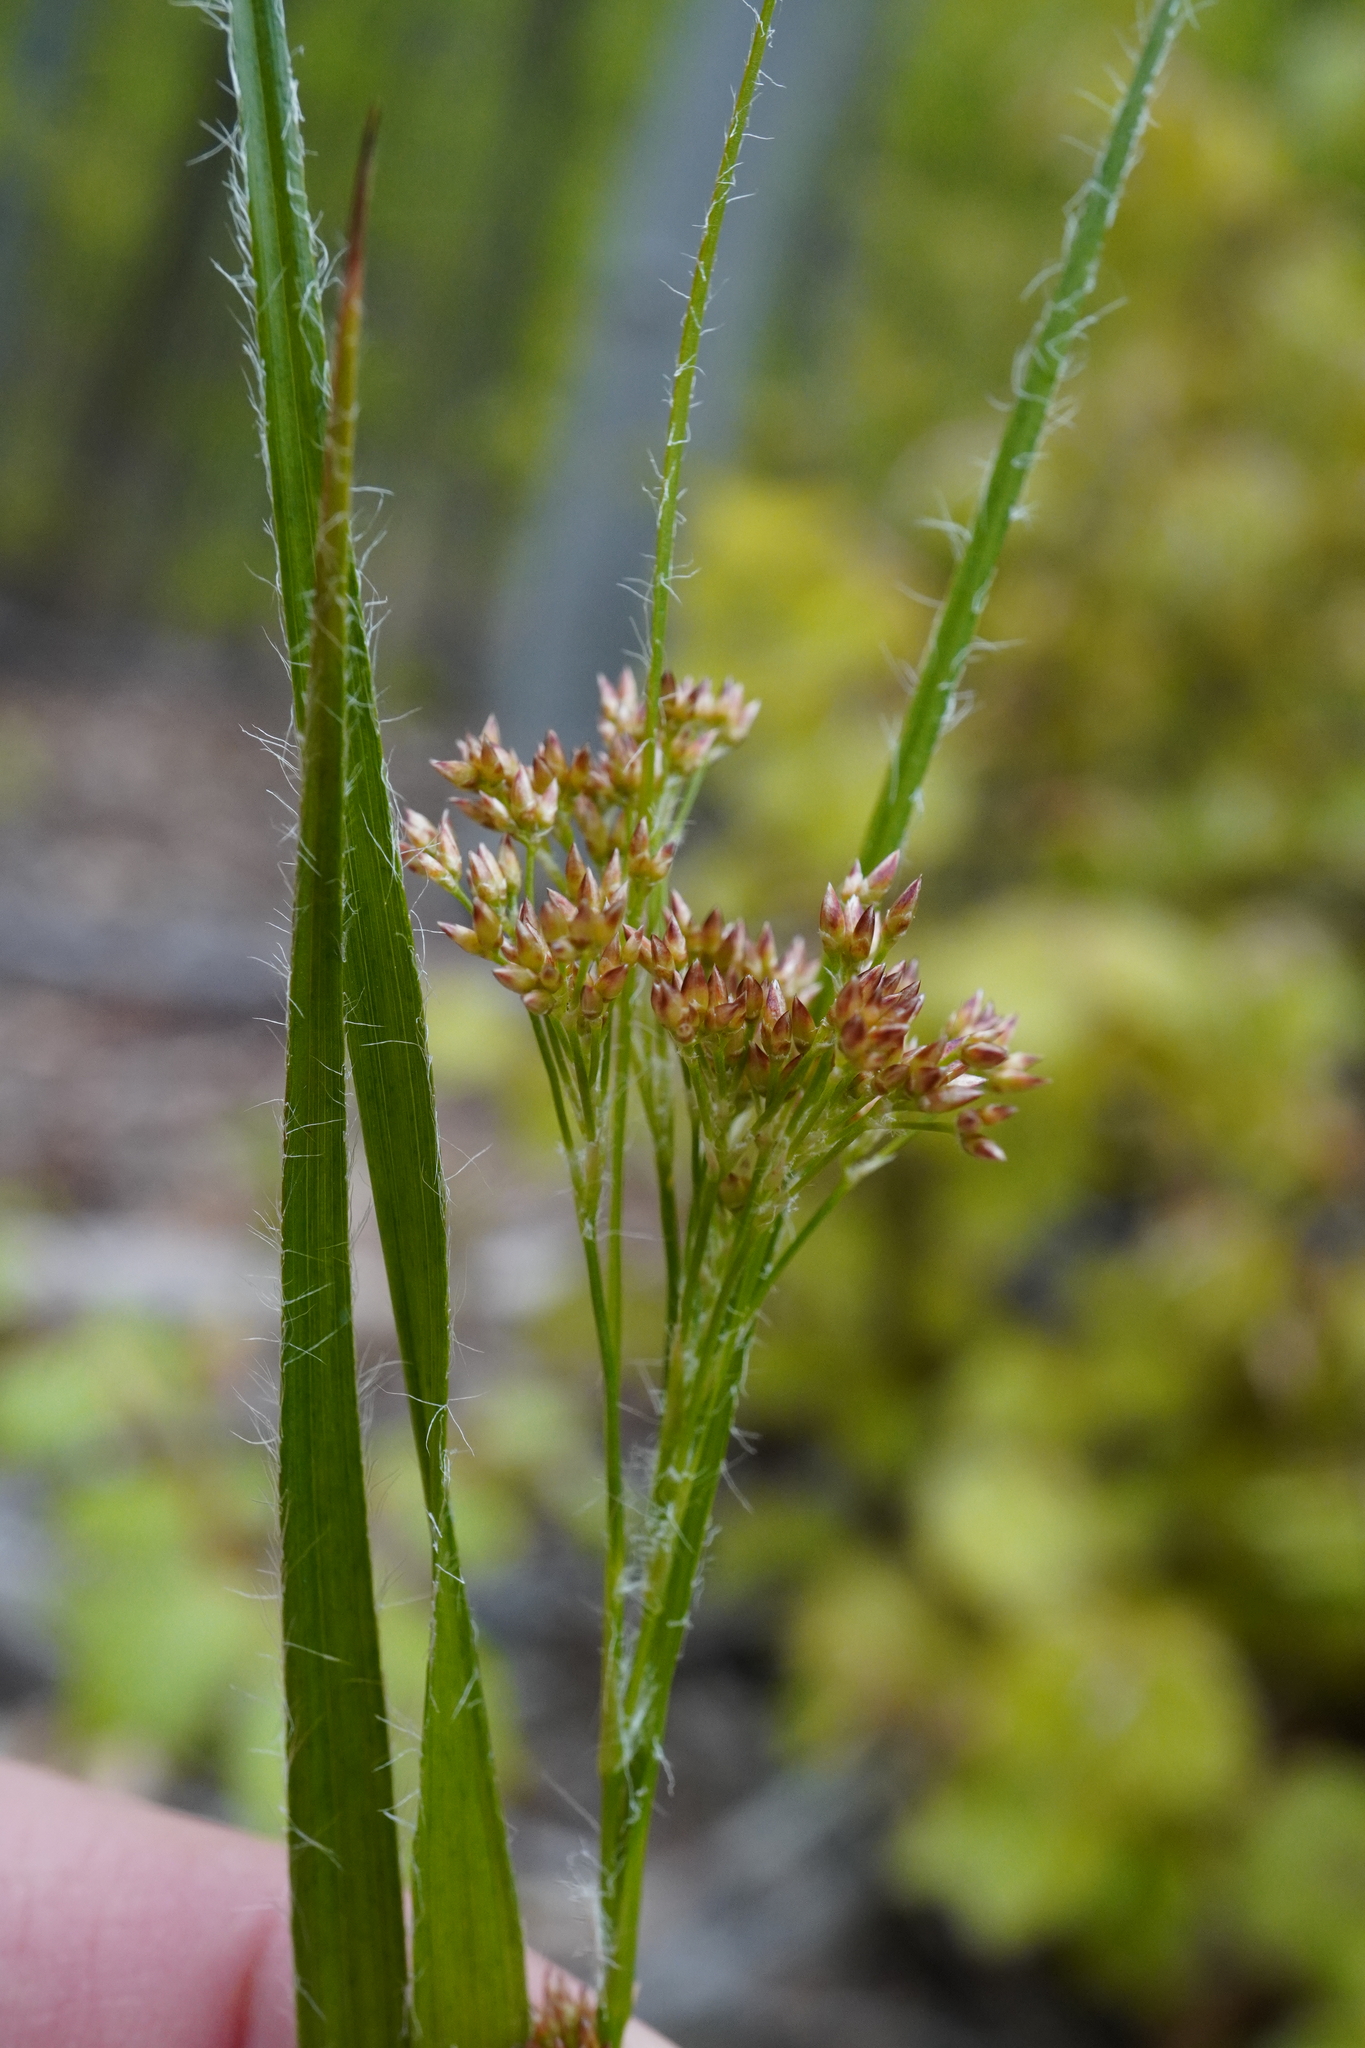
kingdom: Plantae
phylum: Tracheophyta
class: Liliopsida
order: Poales
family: Juncaceae
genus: Luzula
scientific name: Luzula luzuloides
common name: White wood-rush
